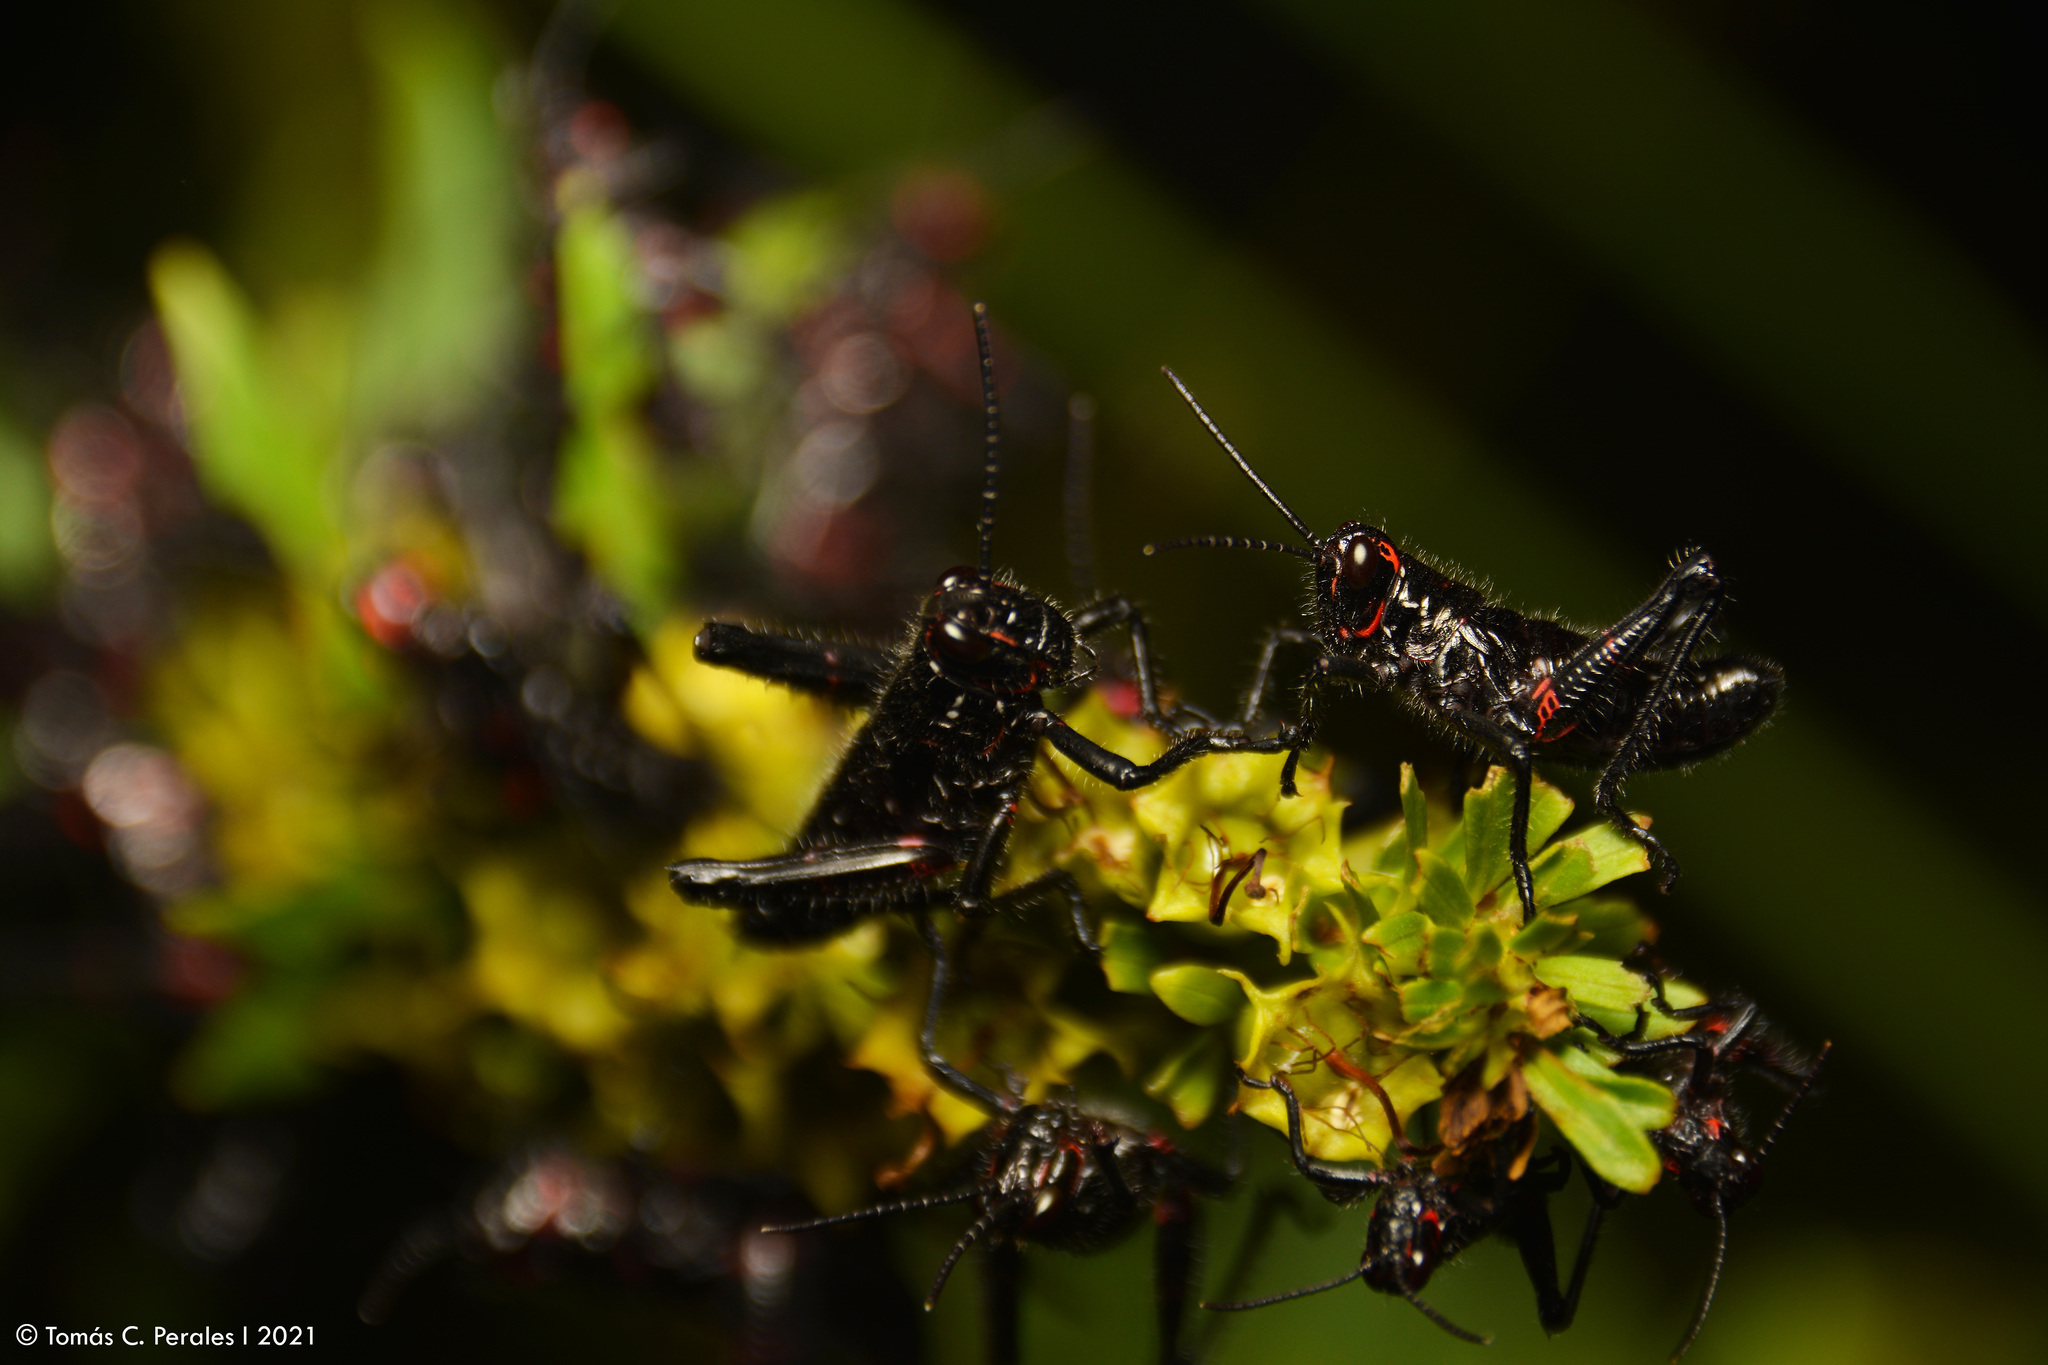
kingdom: Animalia
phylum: Arthropoda
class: Insecta
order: Orthoptera
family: Romaleidae
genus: Chromacris
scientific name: Chromacris speciosa
